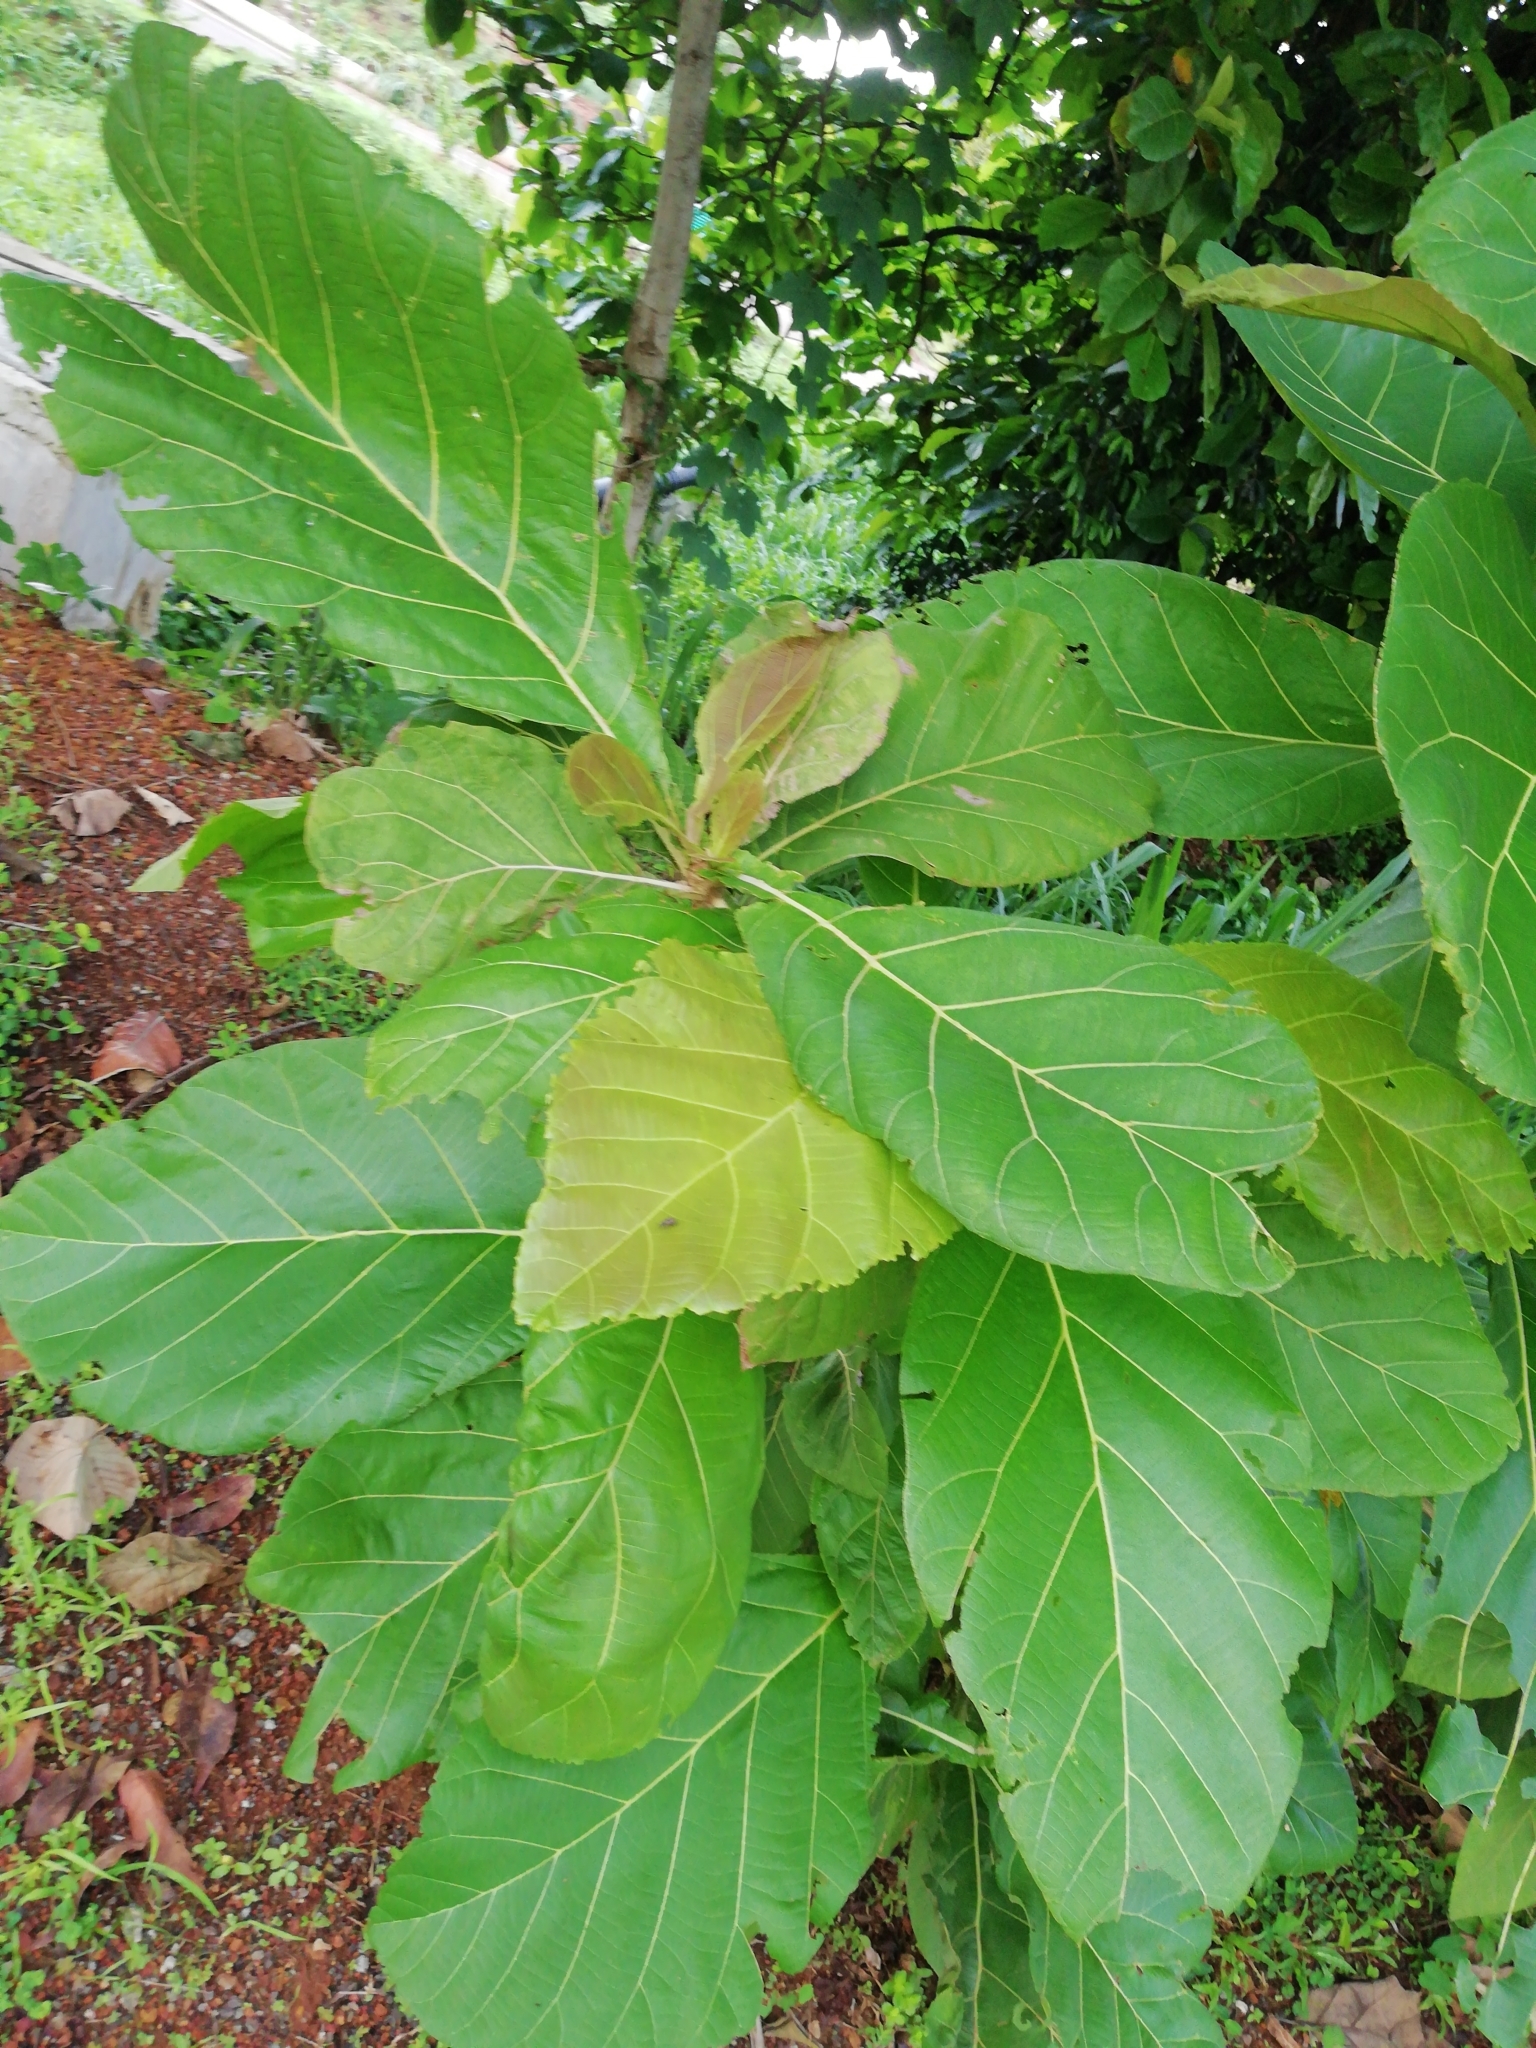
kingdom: Plantae
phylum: Tracheophyta
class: Magnoliopsida
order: Lamiales
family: Lamiaceae
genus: Tectona
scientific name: Tectona grandis
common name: Teak
